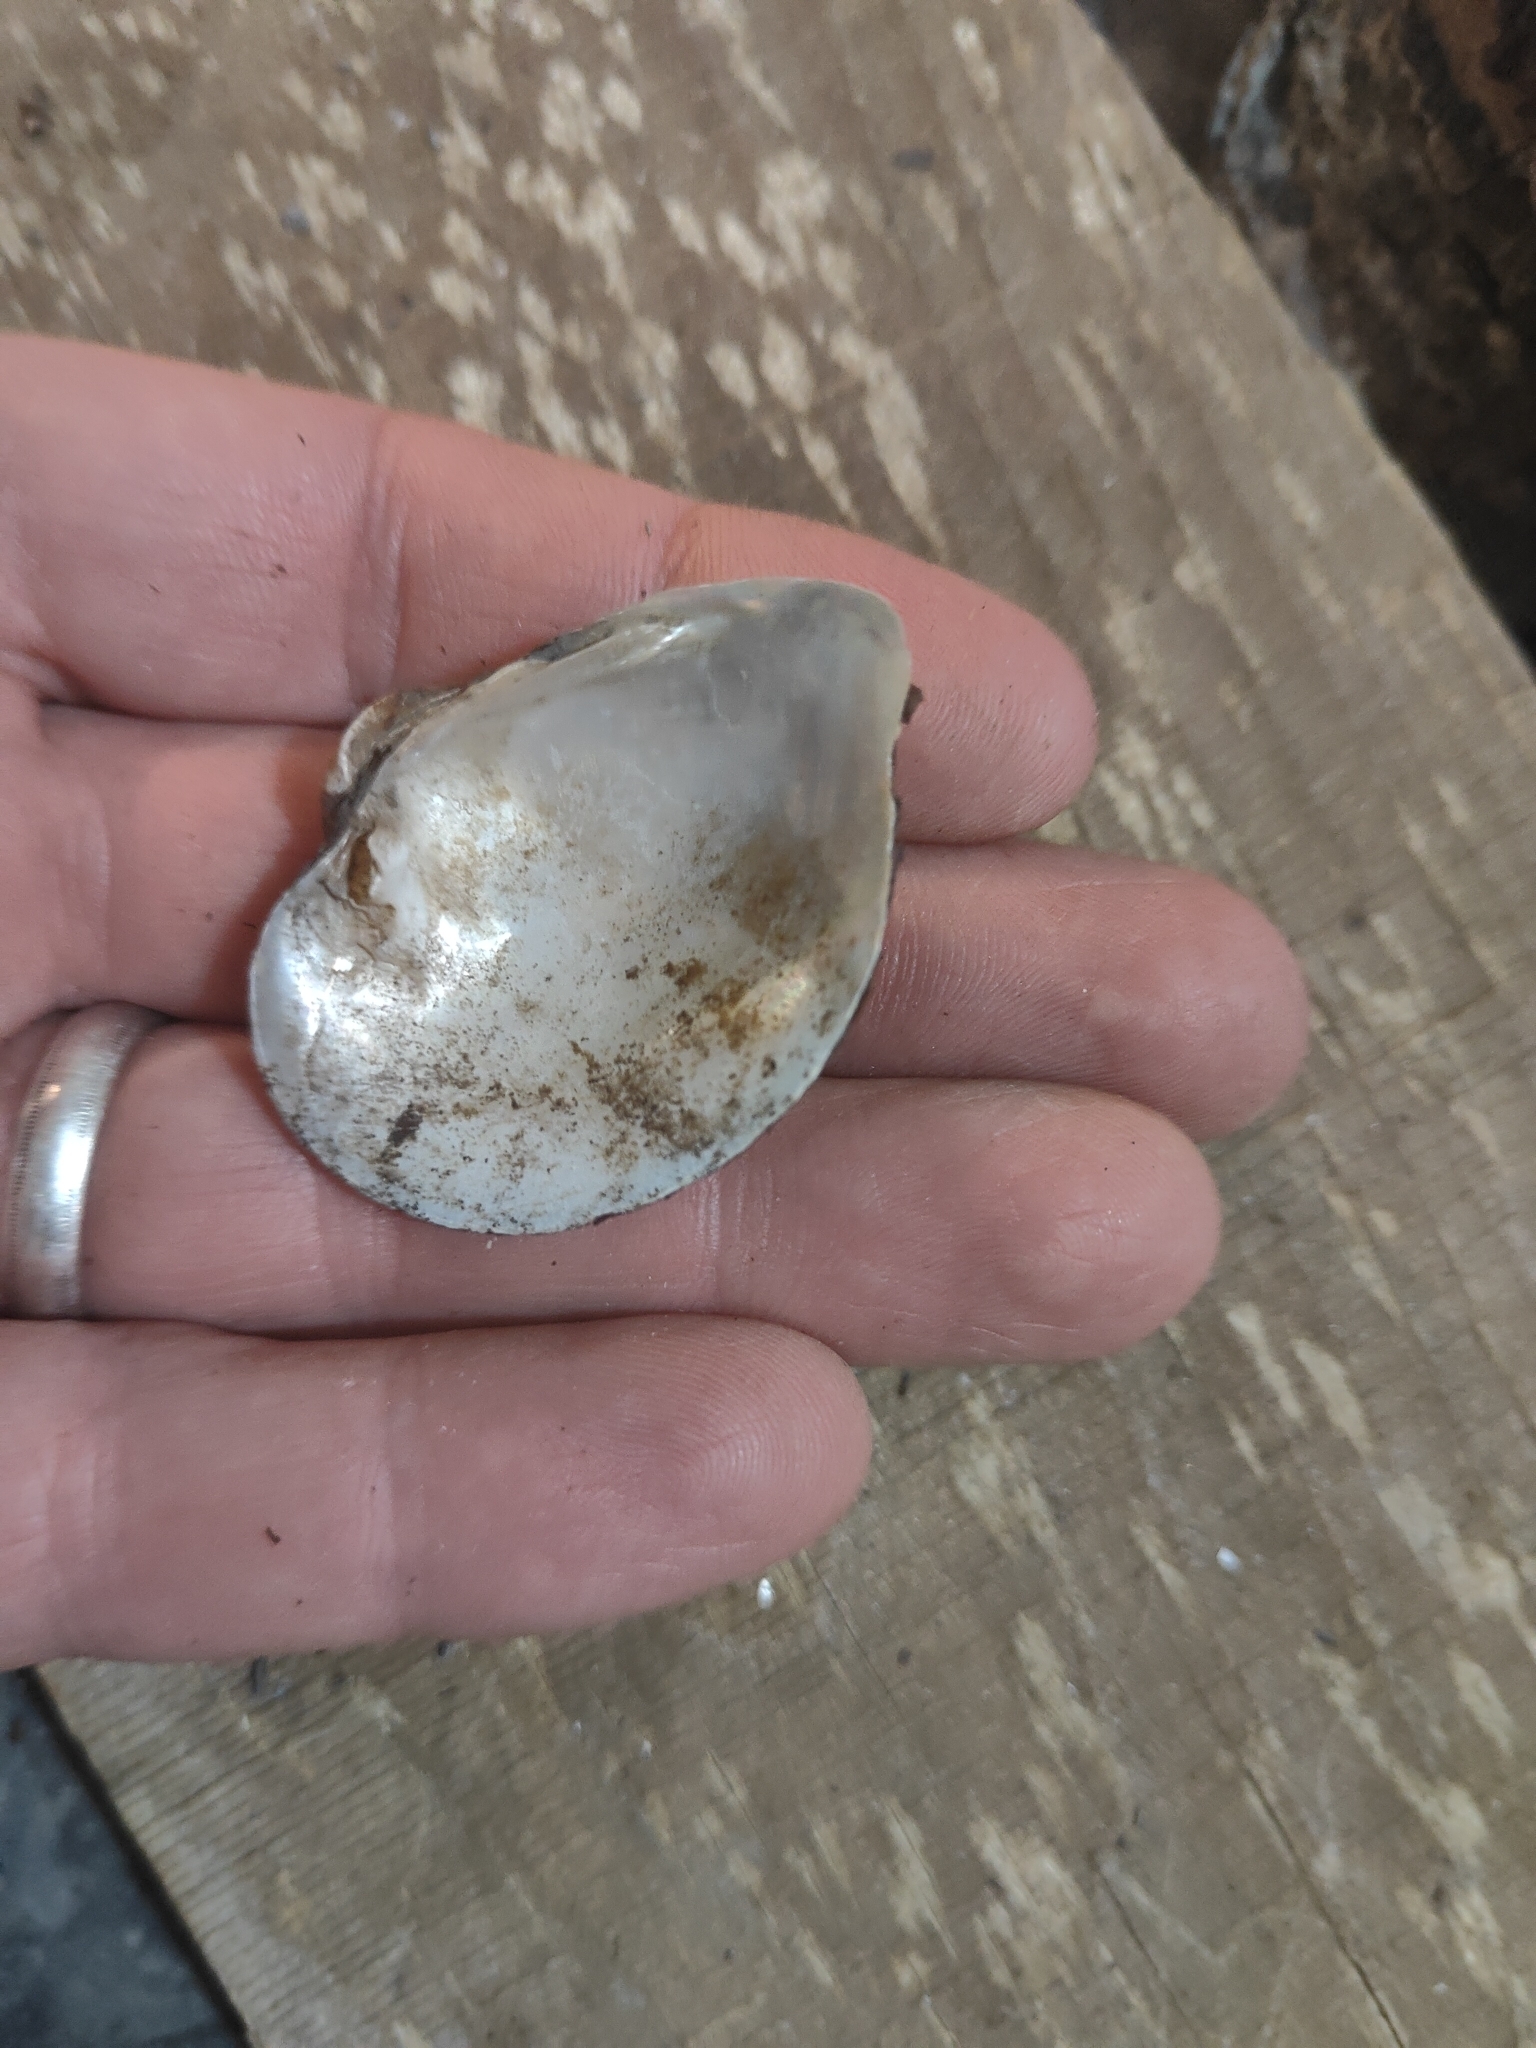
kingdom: Animalia
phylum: Mollusca
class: Bivalvia
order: Unionida
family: Unionidae
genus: Truncilla
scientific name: Truncilla truncata
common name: Deertoe
